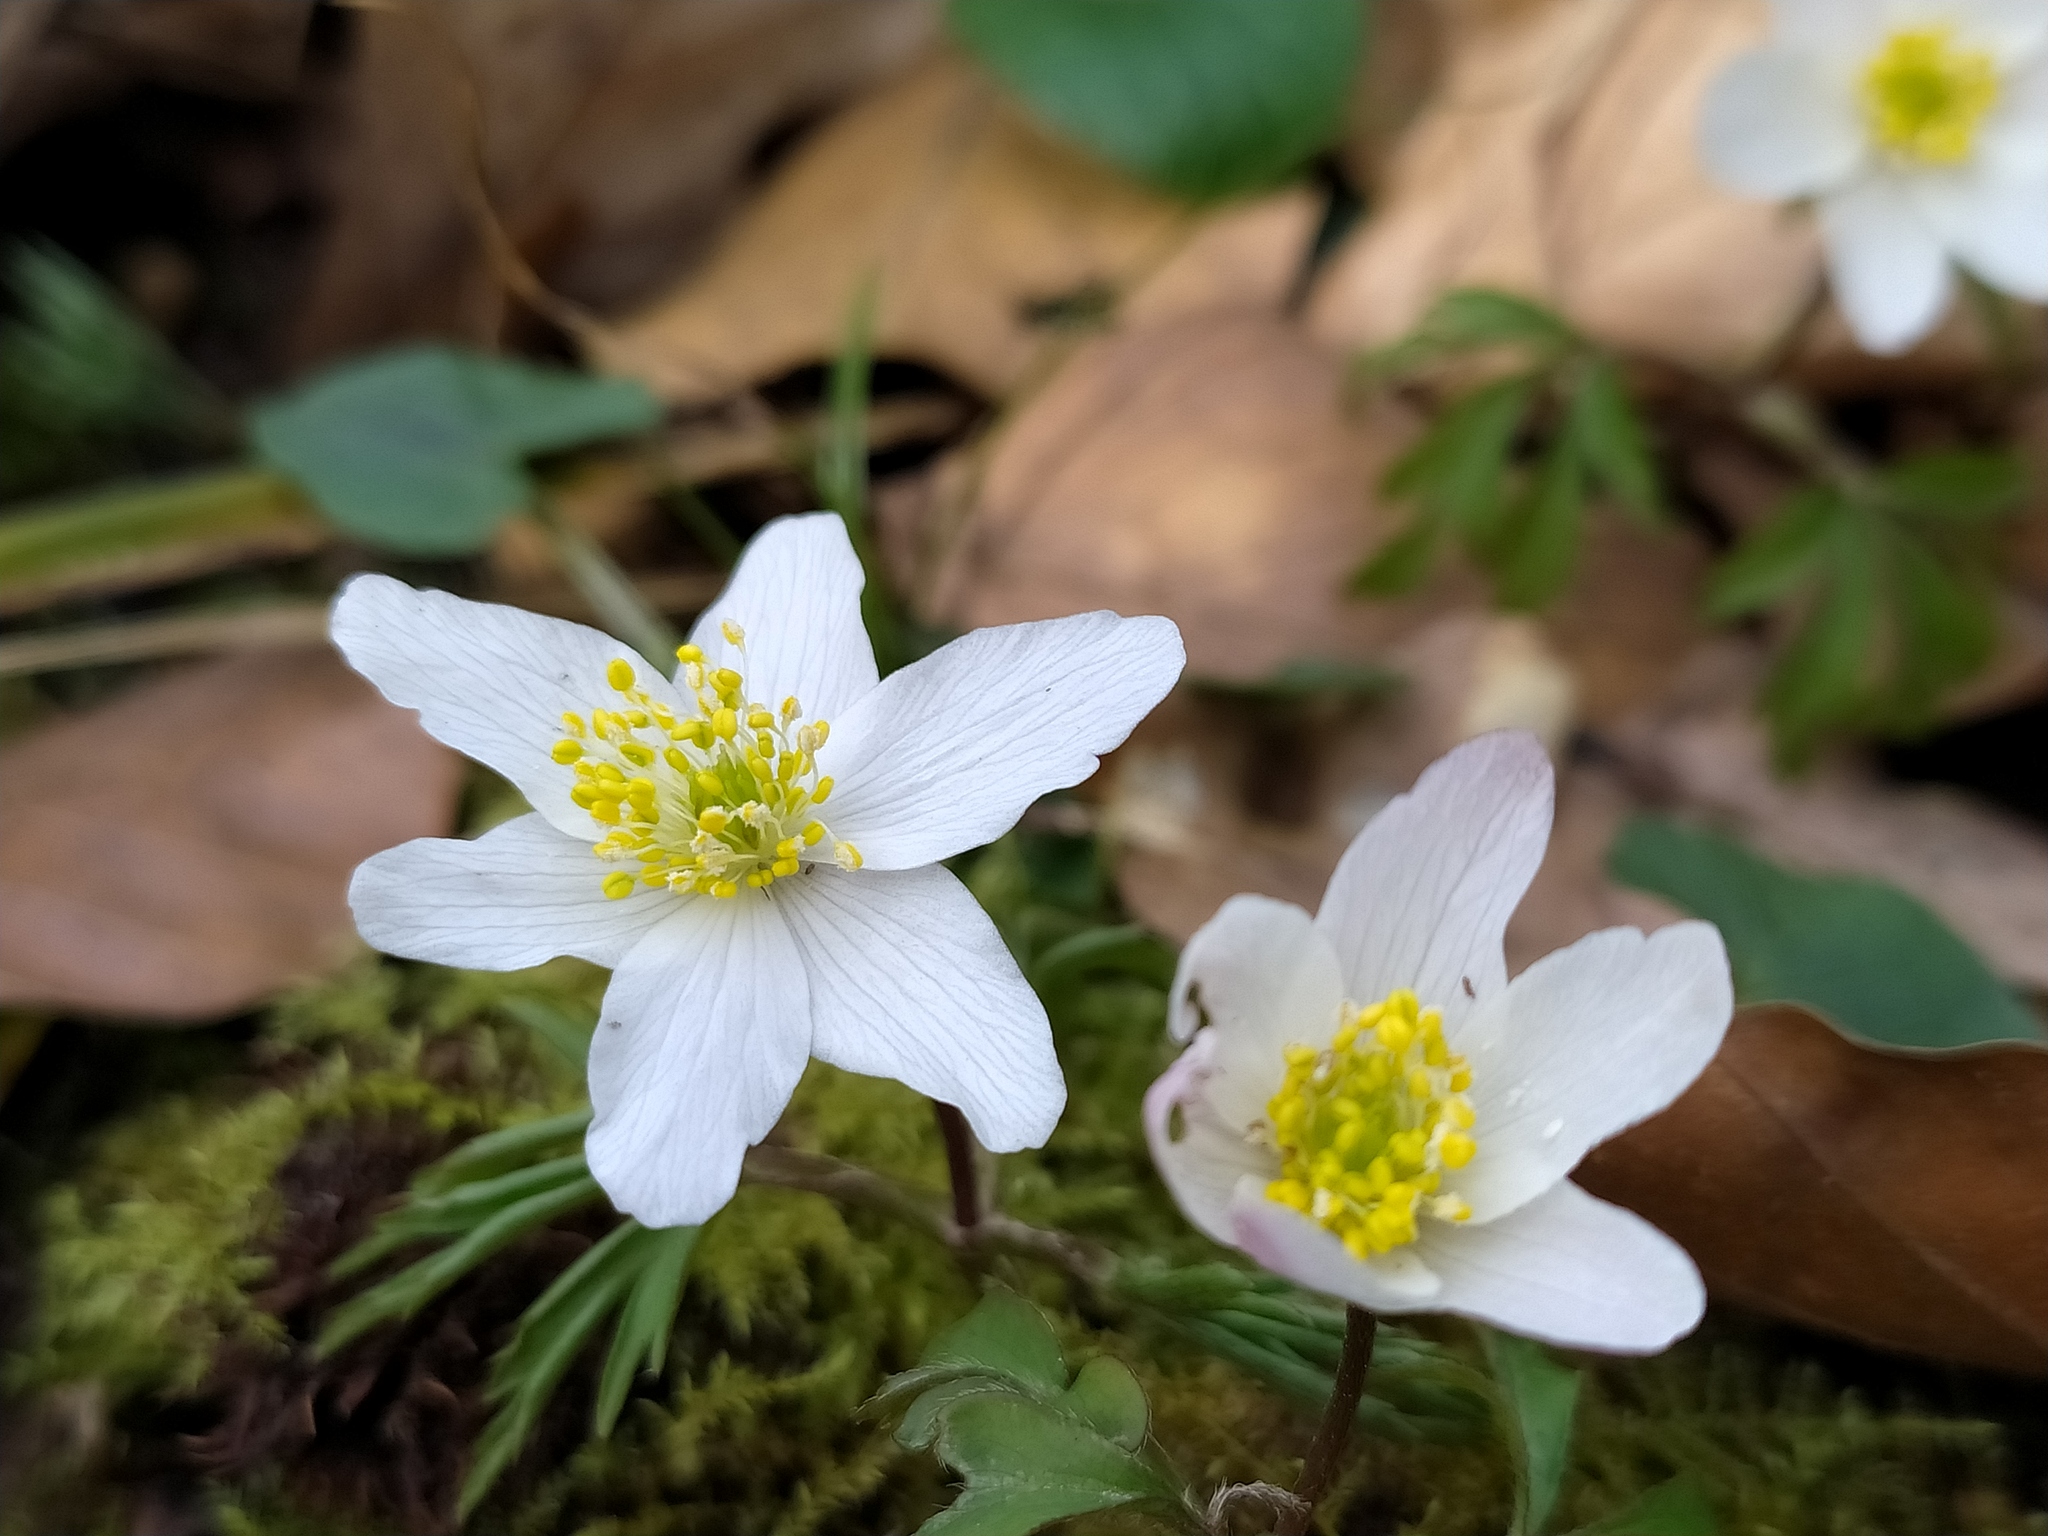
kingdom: Plantae
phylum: Tracheophyta
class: Magnoliopsida
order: Ranunculales
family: Ranunculaceae
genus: Anemone
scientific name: Anemone nemorosa
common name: Wood anemone
